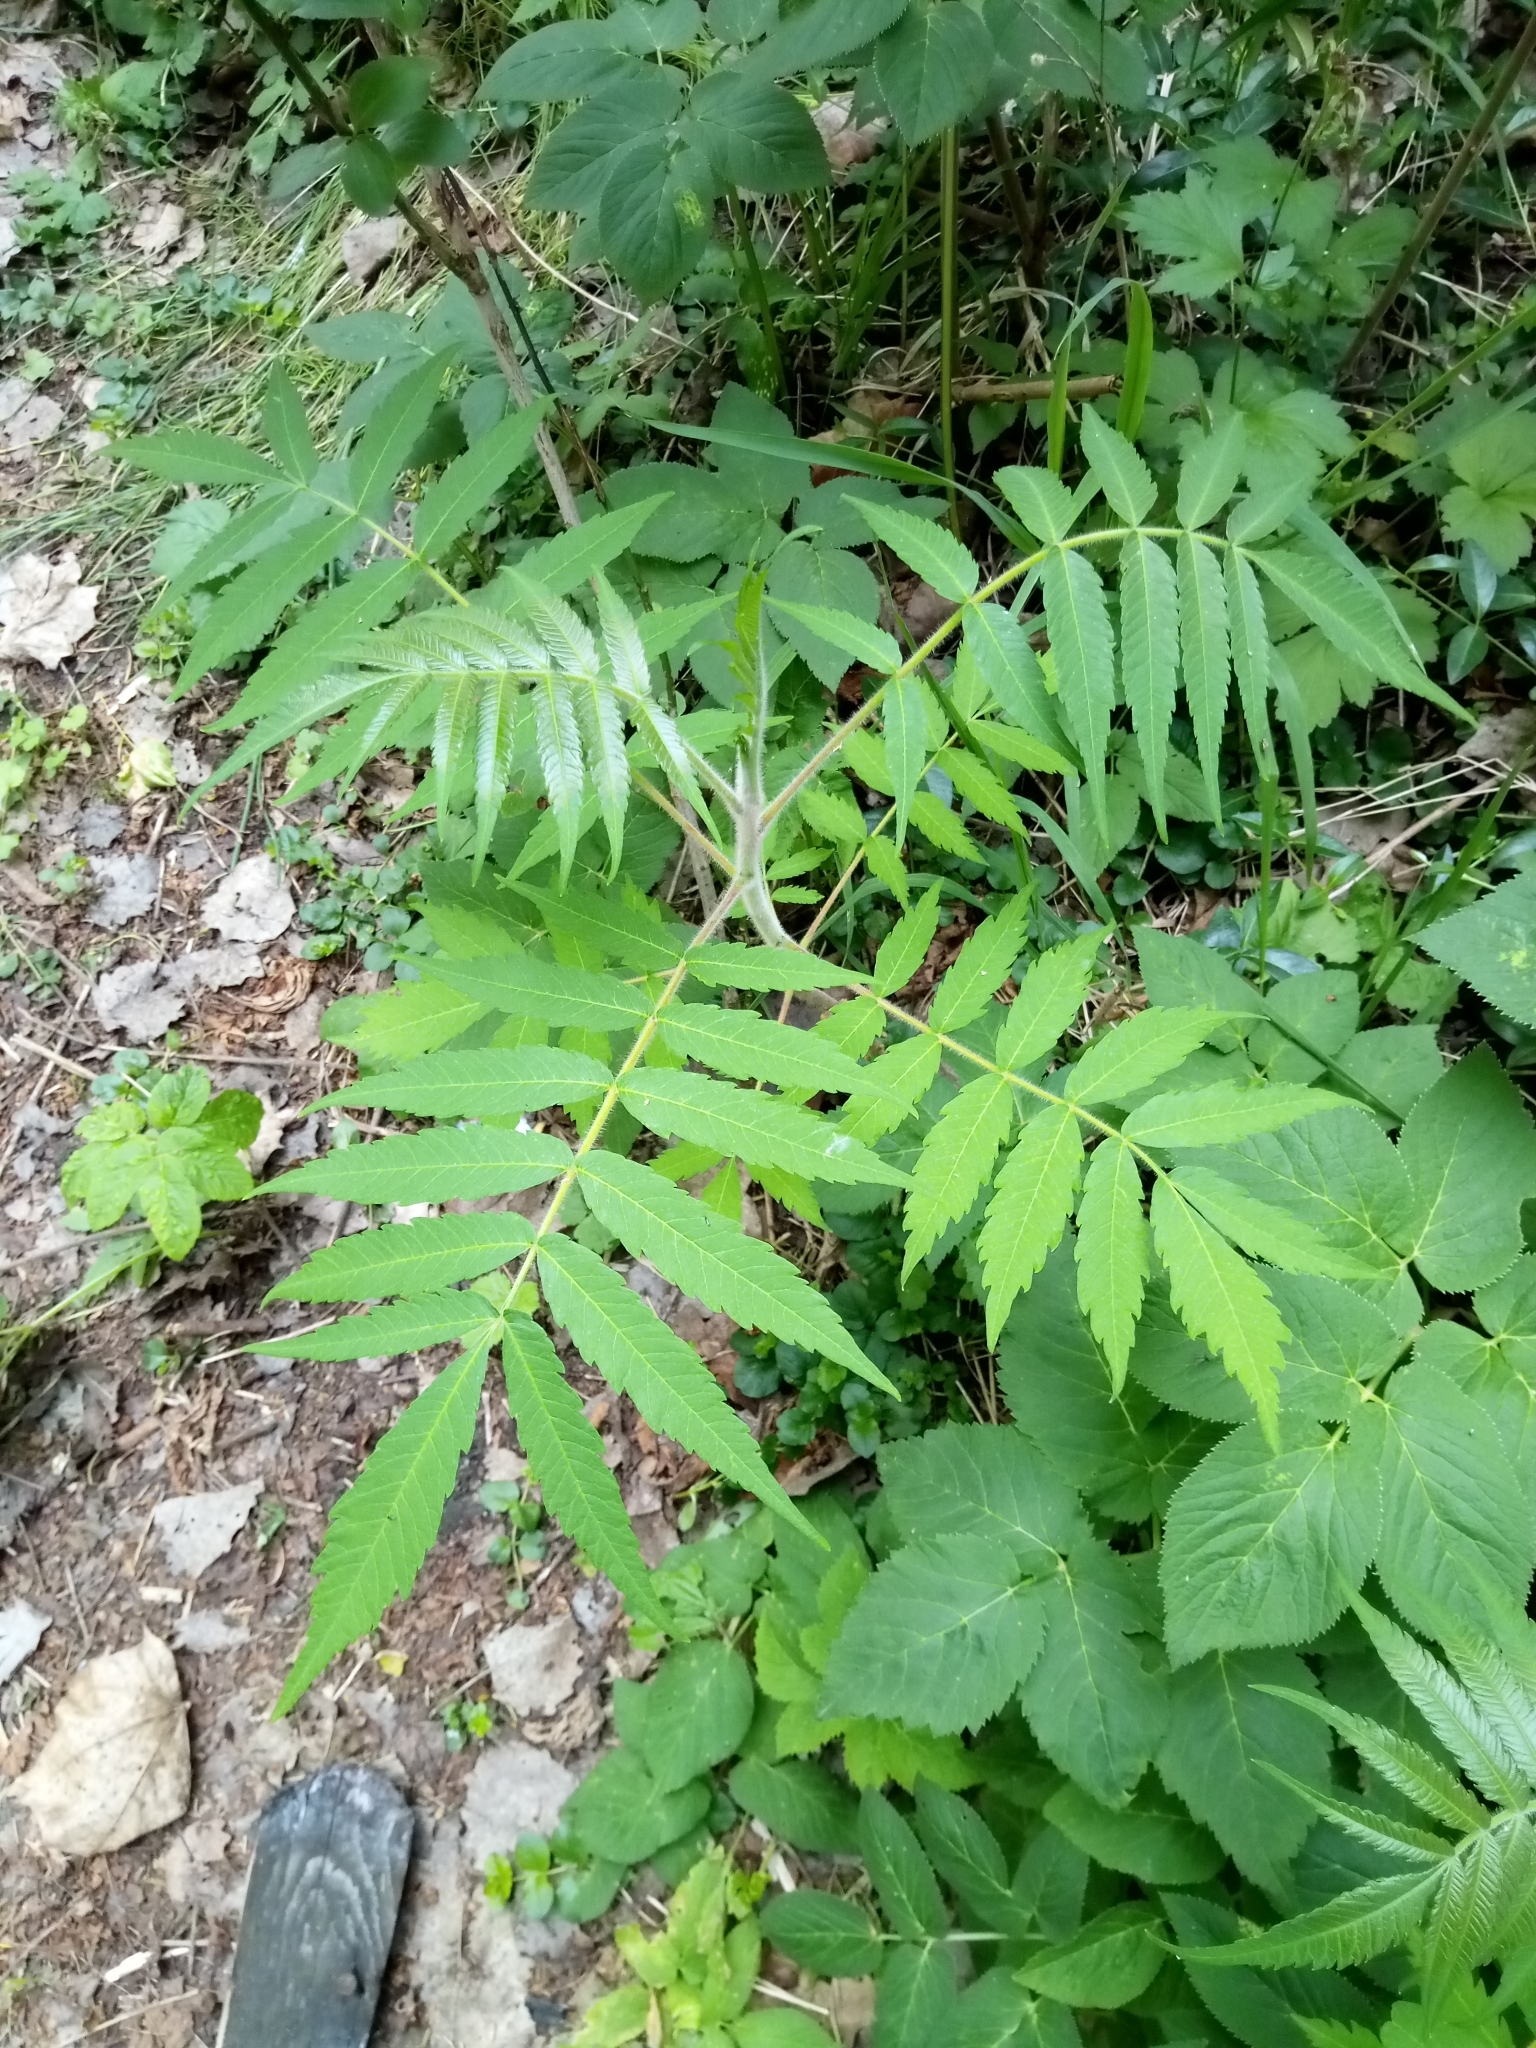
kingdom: Plantae
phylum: Tracheophyta
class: Magnoliopsida
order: Sapindales
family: Anacardiaceae
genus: Rhus
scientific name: Rhus typhina
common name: Staghorn sumac
